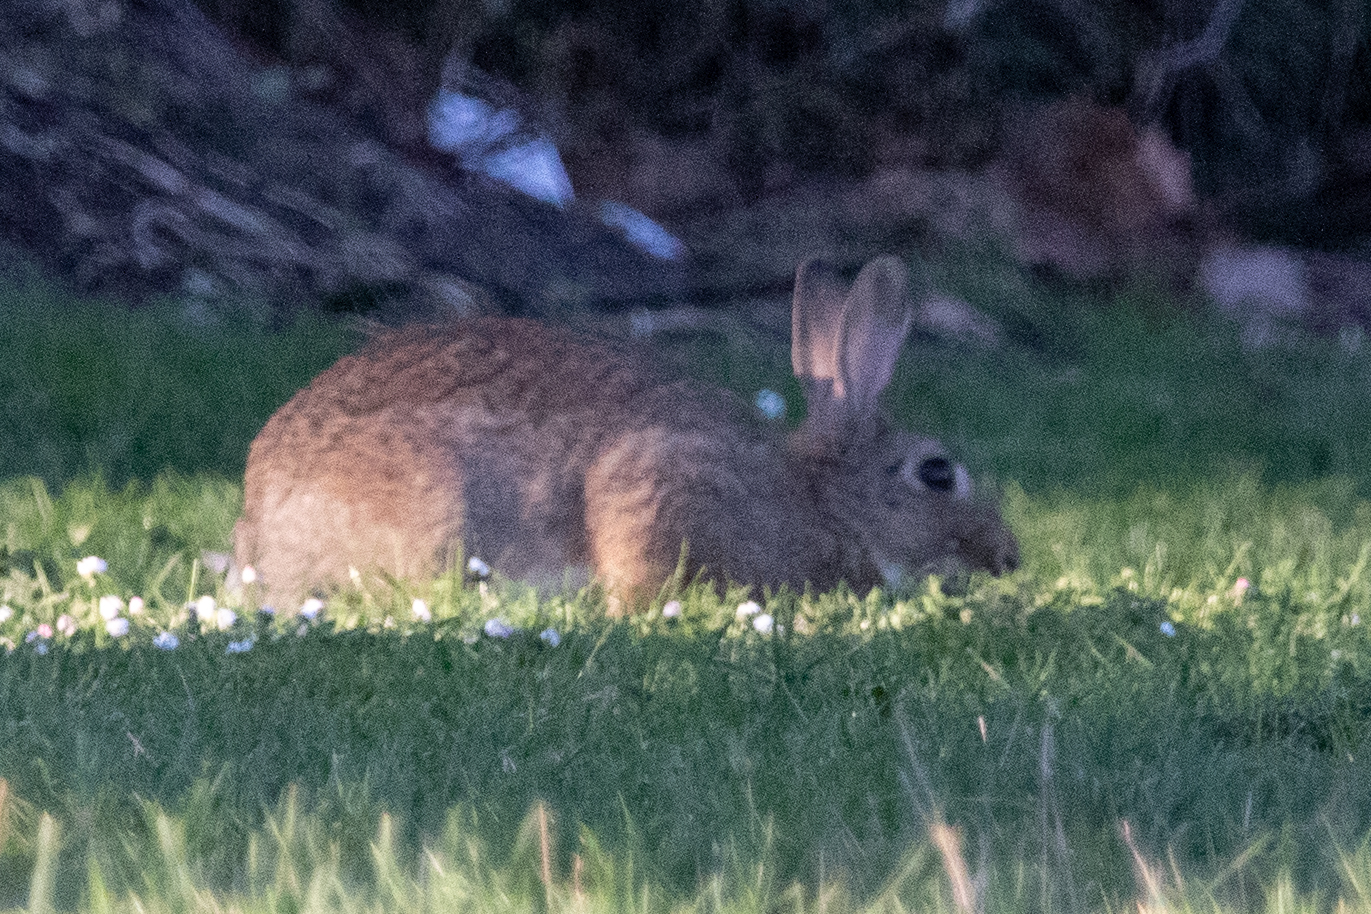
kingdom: Animalia
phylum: Chordata
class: Mammalia
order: Lagomorpha
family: Leporidae
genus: Oryctolagus
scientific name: Oryctolagus cuniculus
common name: European rabbit
